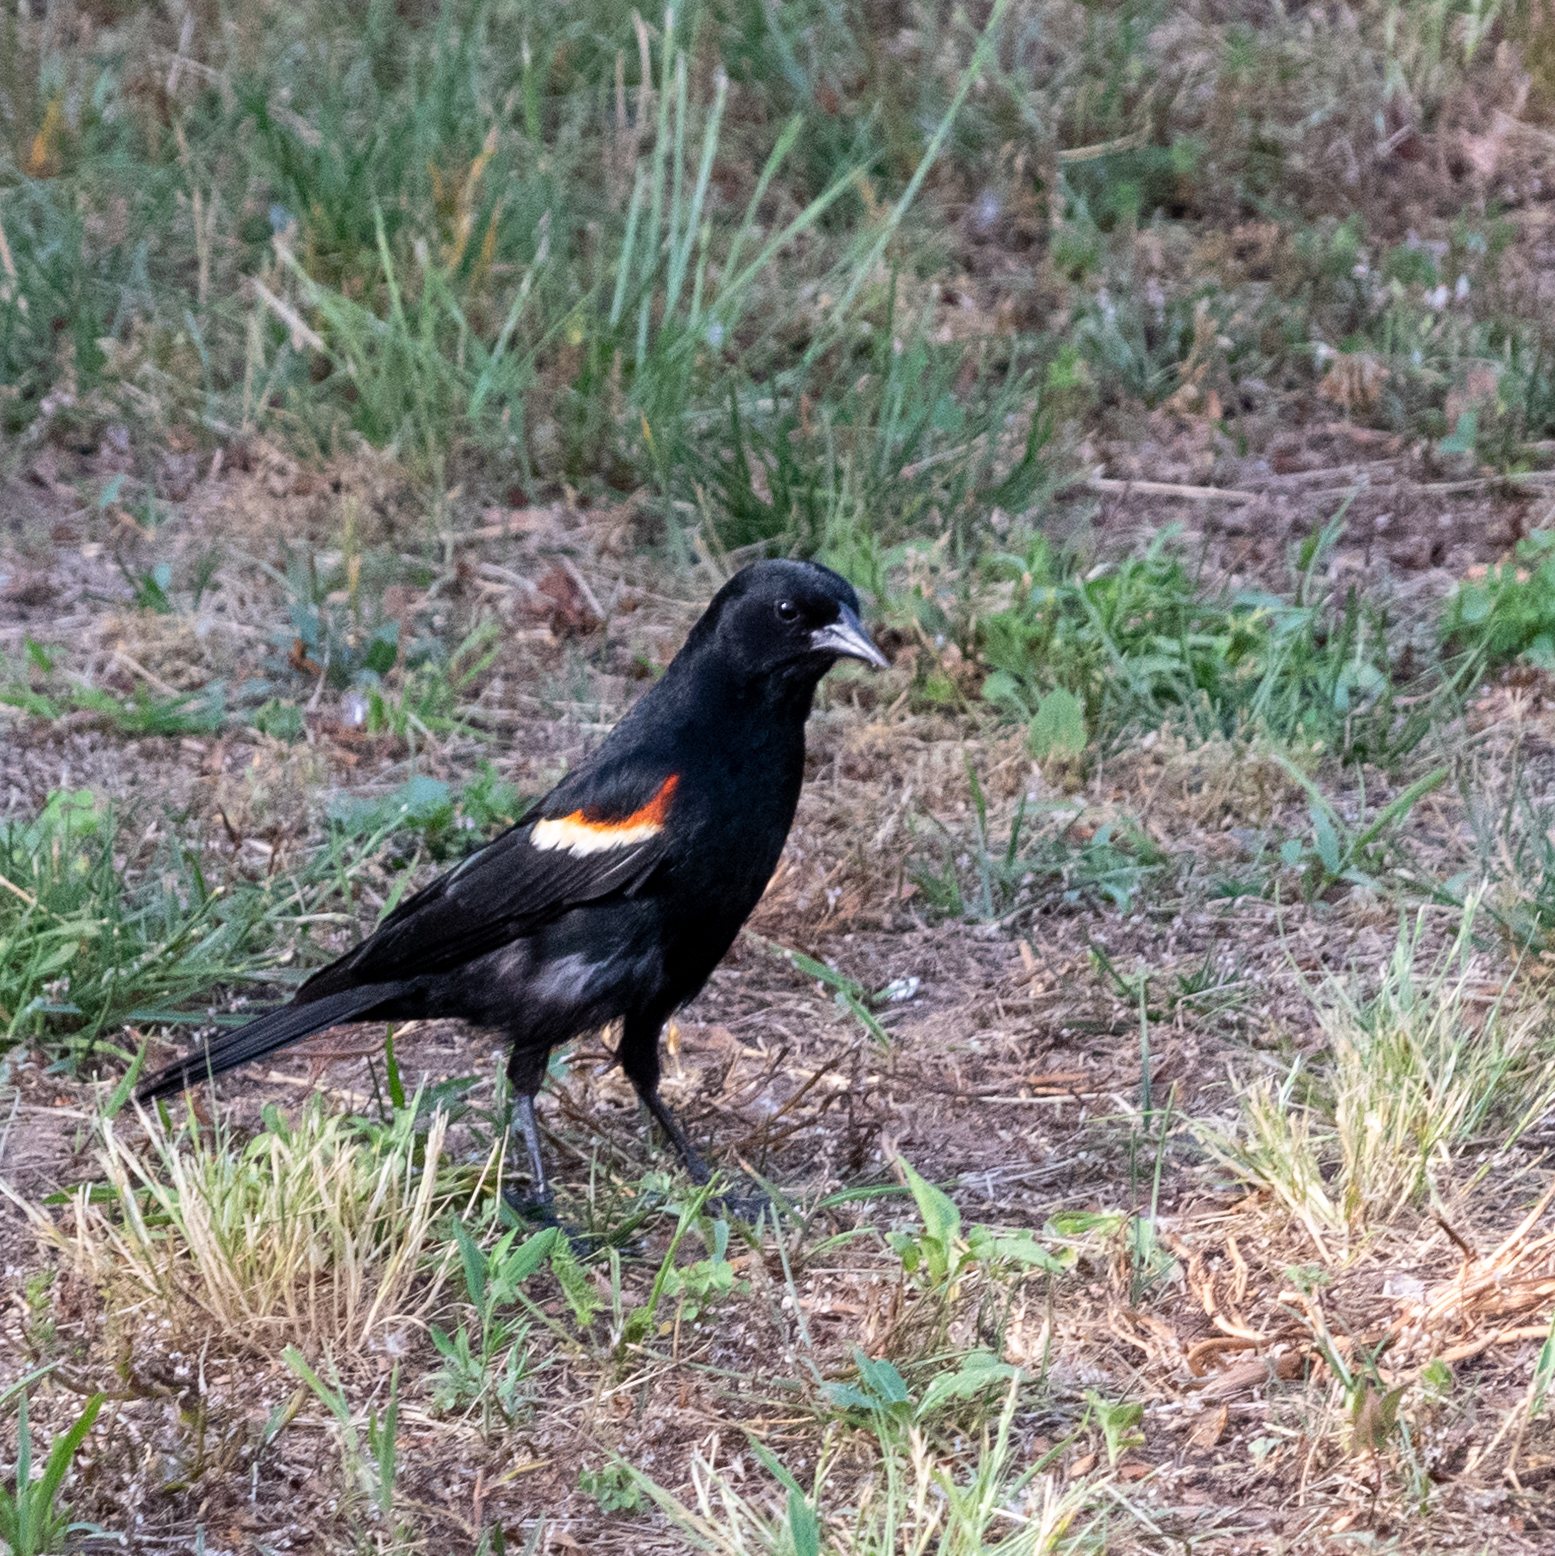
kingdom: Animalia
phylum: Chordata
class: Aves
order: Passeriformes
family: Icteridae
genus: Agelaius
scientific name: Agelaius phoeniceus
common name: Red-winged blackbird
